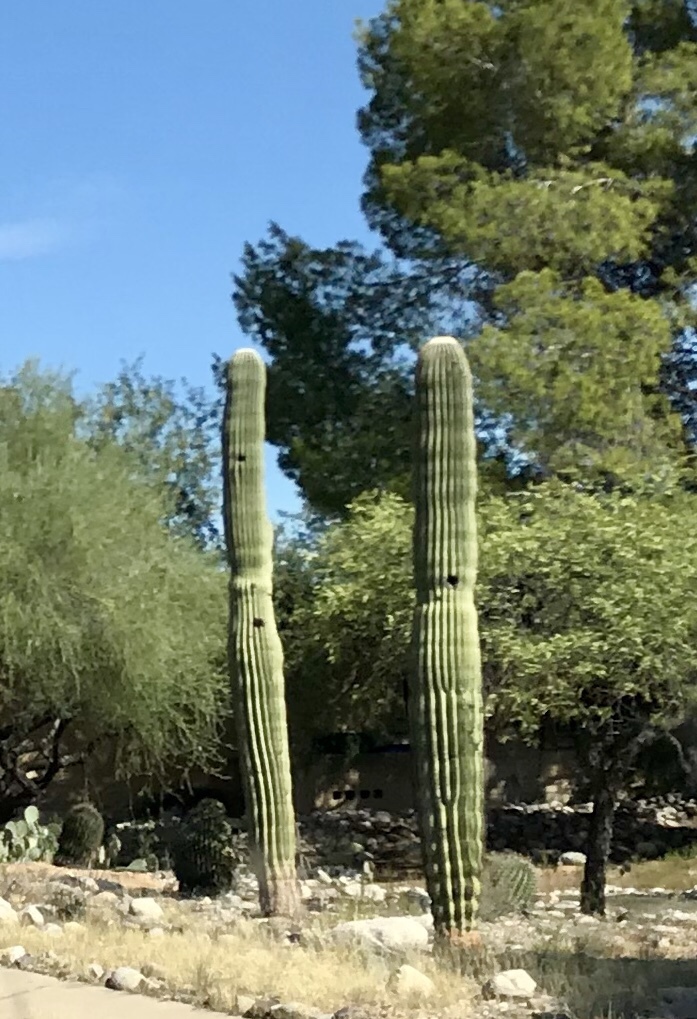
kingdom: Plantae
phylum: Tracheophyta
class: Magnoliopsida
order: Caryophyllales
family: Cactaceae
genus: Carnegiea
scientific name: Carnegiea gigantea
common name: Saguaro
